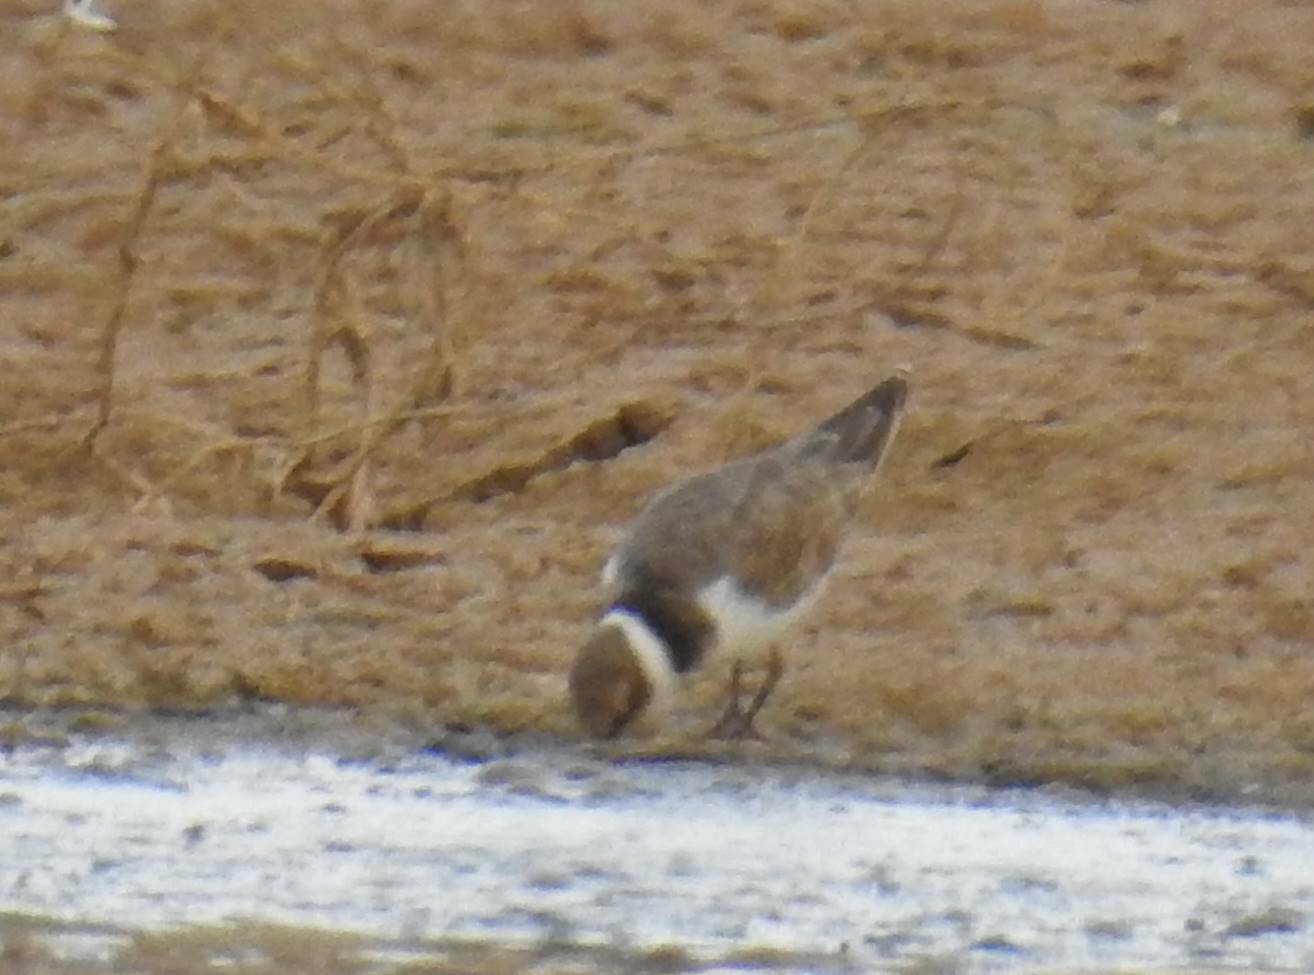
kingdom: Animalia
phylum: Chordata
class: Aves
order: Charadriiformes
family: Charadriidae
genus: Charadrius
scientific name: Charadrius dubius
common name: Little ringed plover
